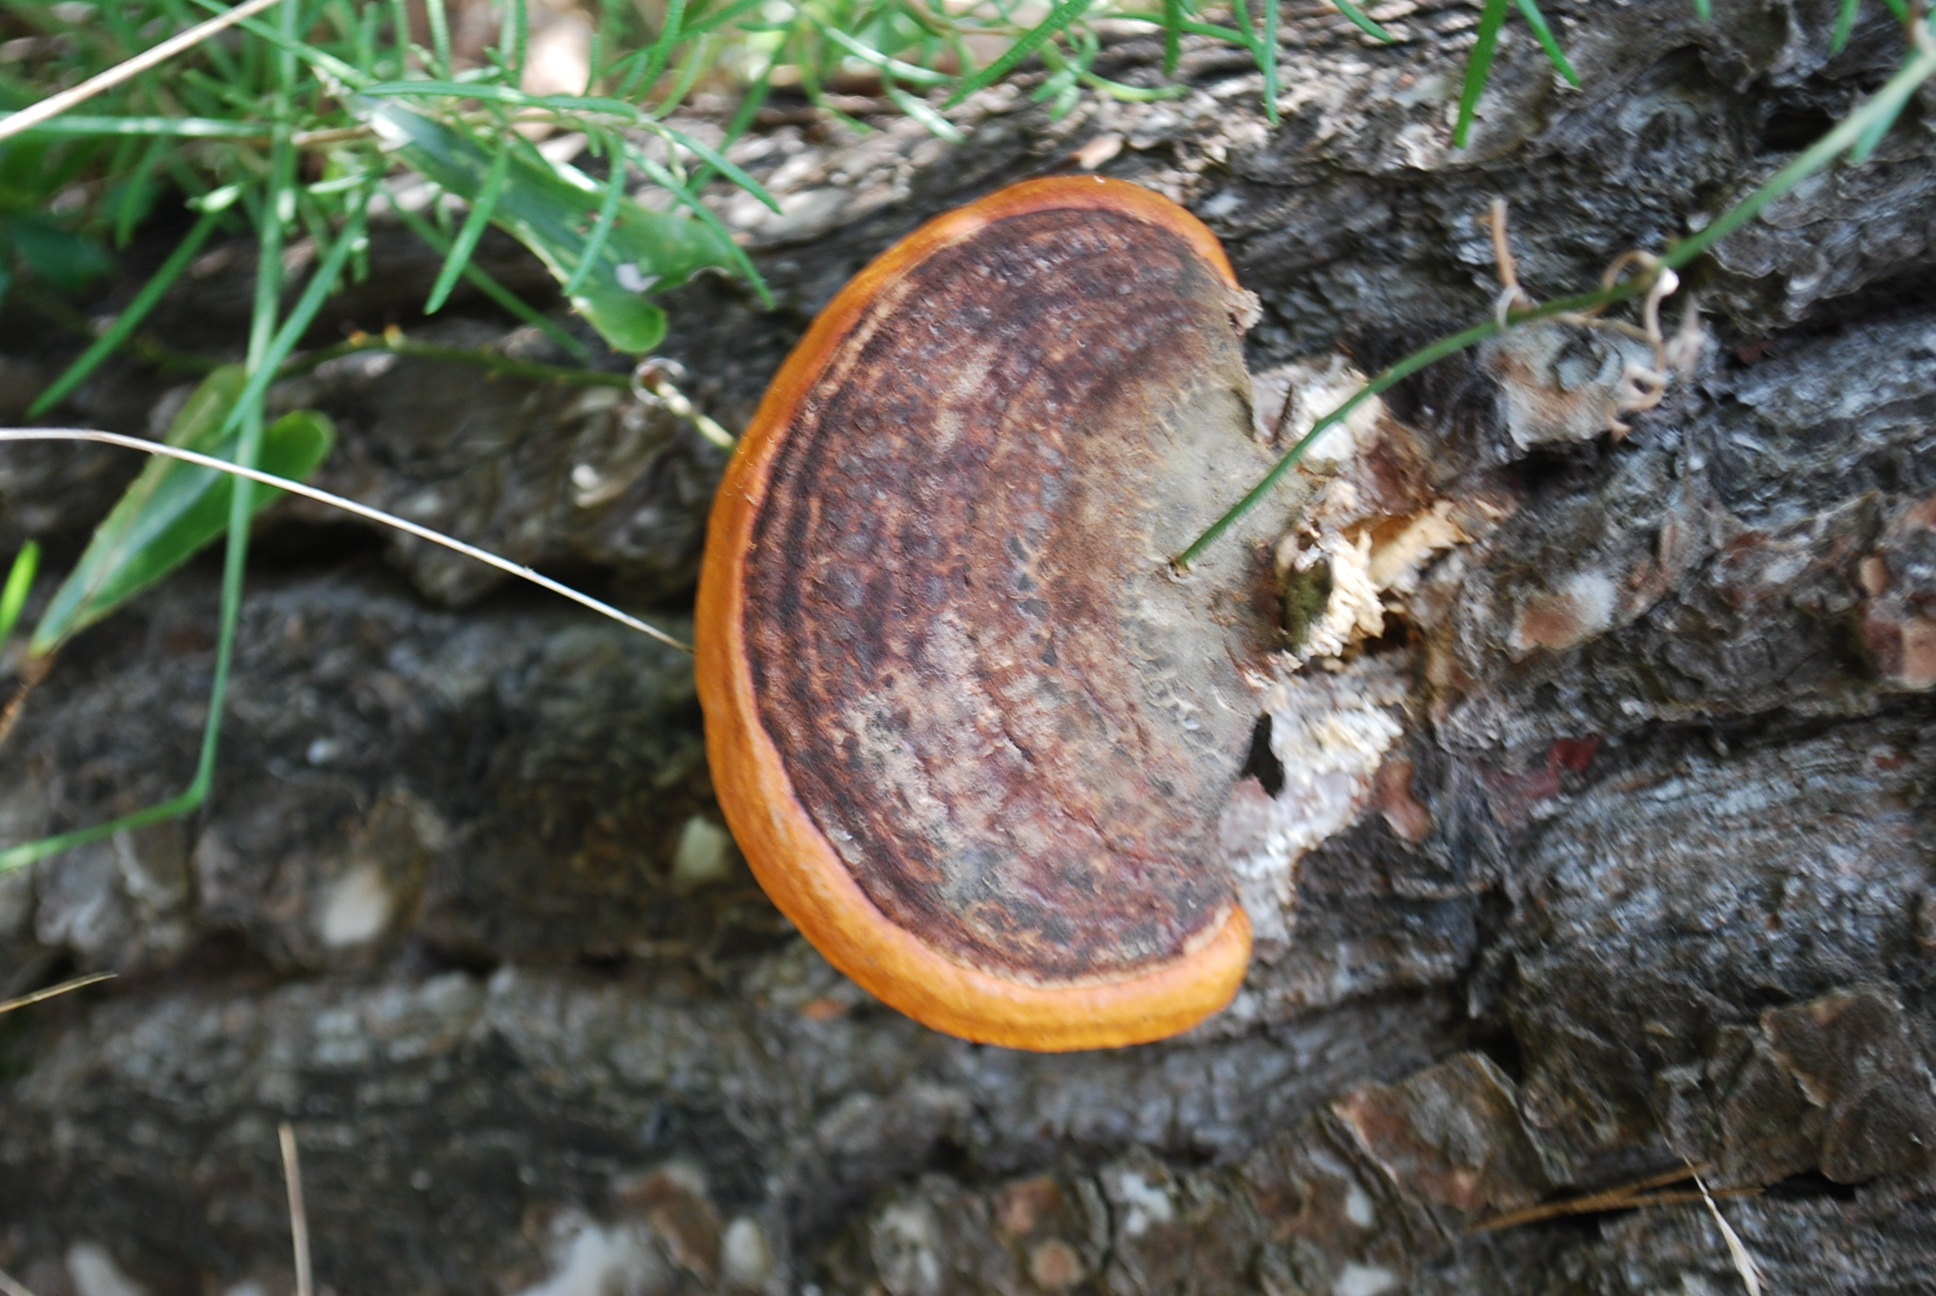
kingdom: Fungi
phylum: Basidiomycota
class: Agaricomycetes
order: Polyporales
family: Fomitopsidaceae
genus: Fomitopsis
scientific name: Fomitopsis pinicola
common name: Red-belted bracket
